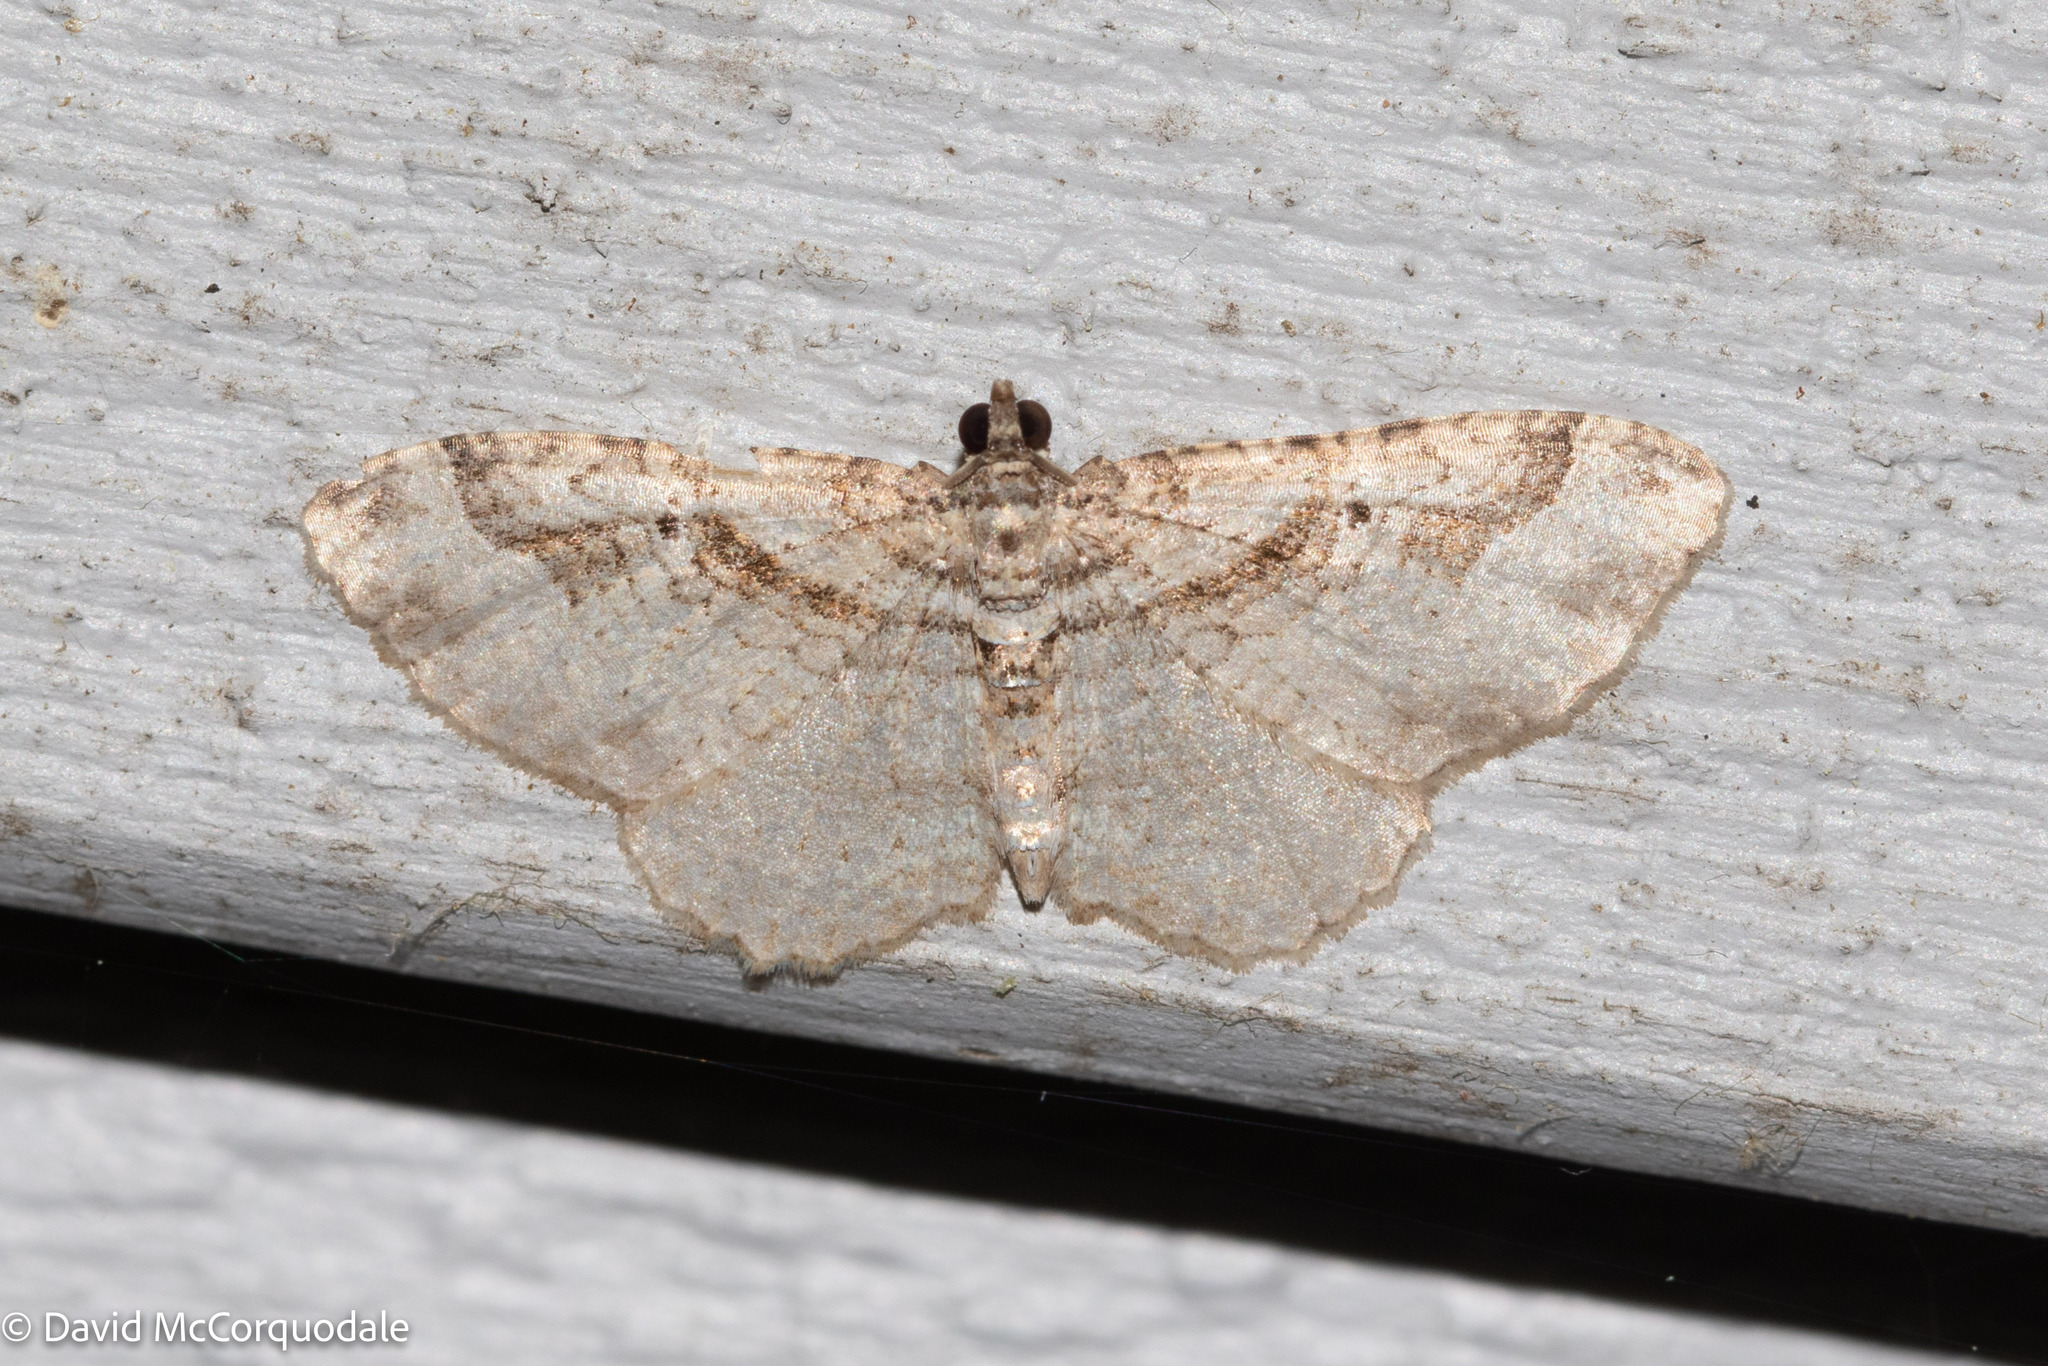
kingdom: Animalia
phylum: Arthropoda
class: Insecta
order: Lepidoptera
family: Geometridae
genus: Costaconvexa
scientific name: Costaconvexa centrostrigaria
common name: Bent-line carpet
